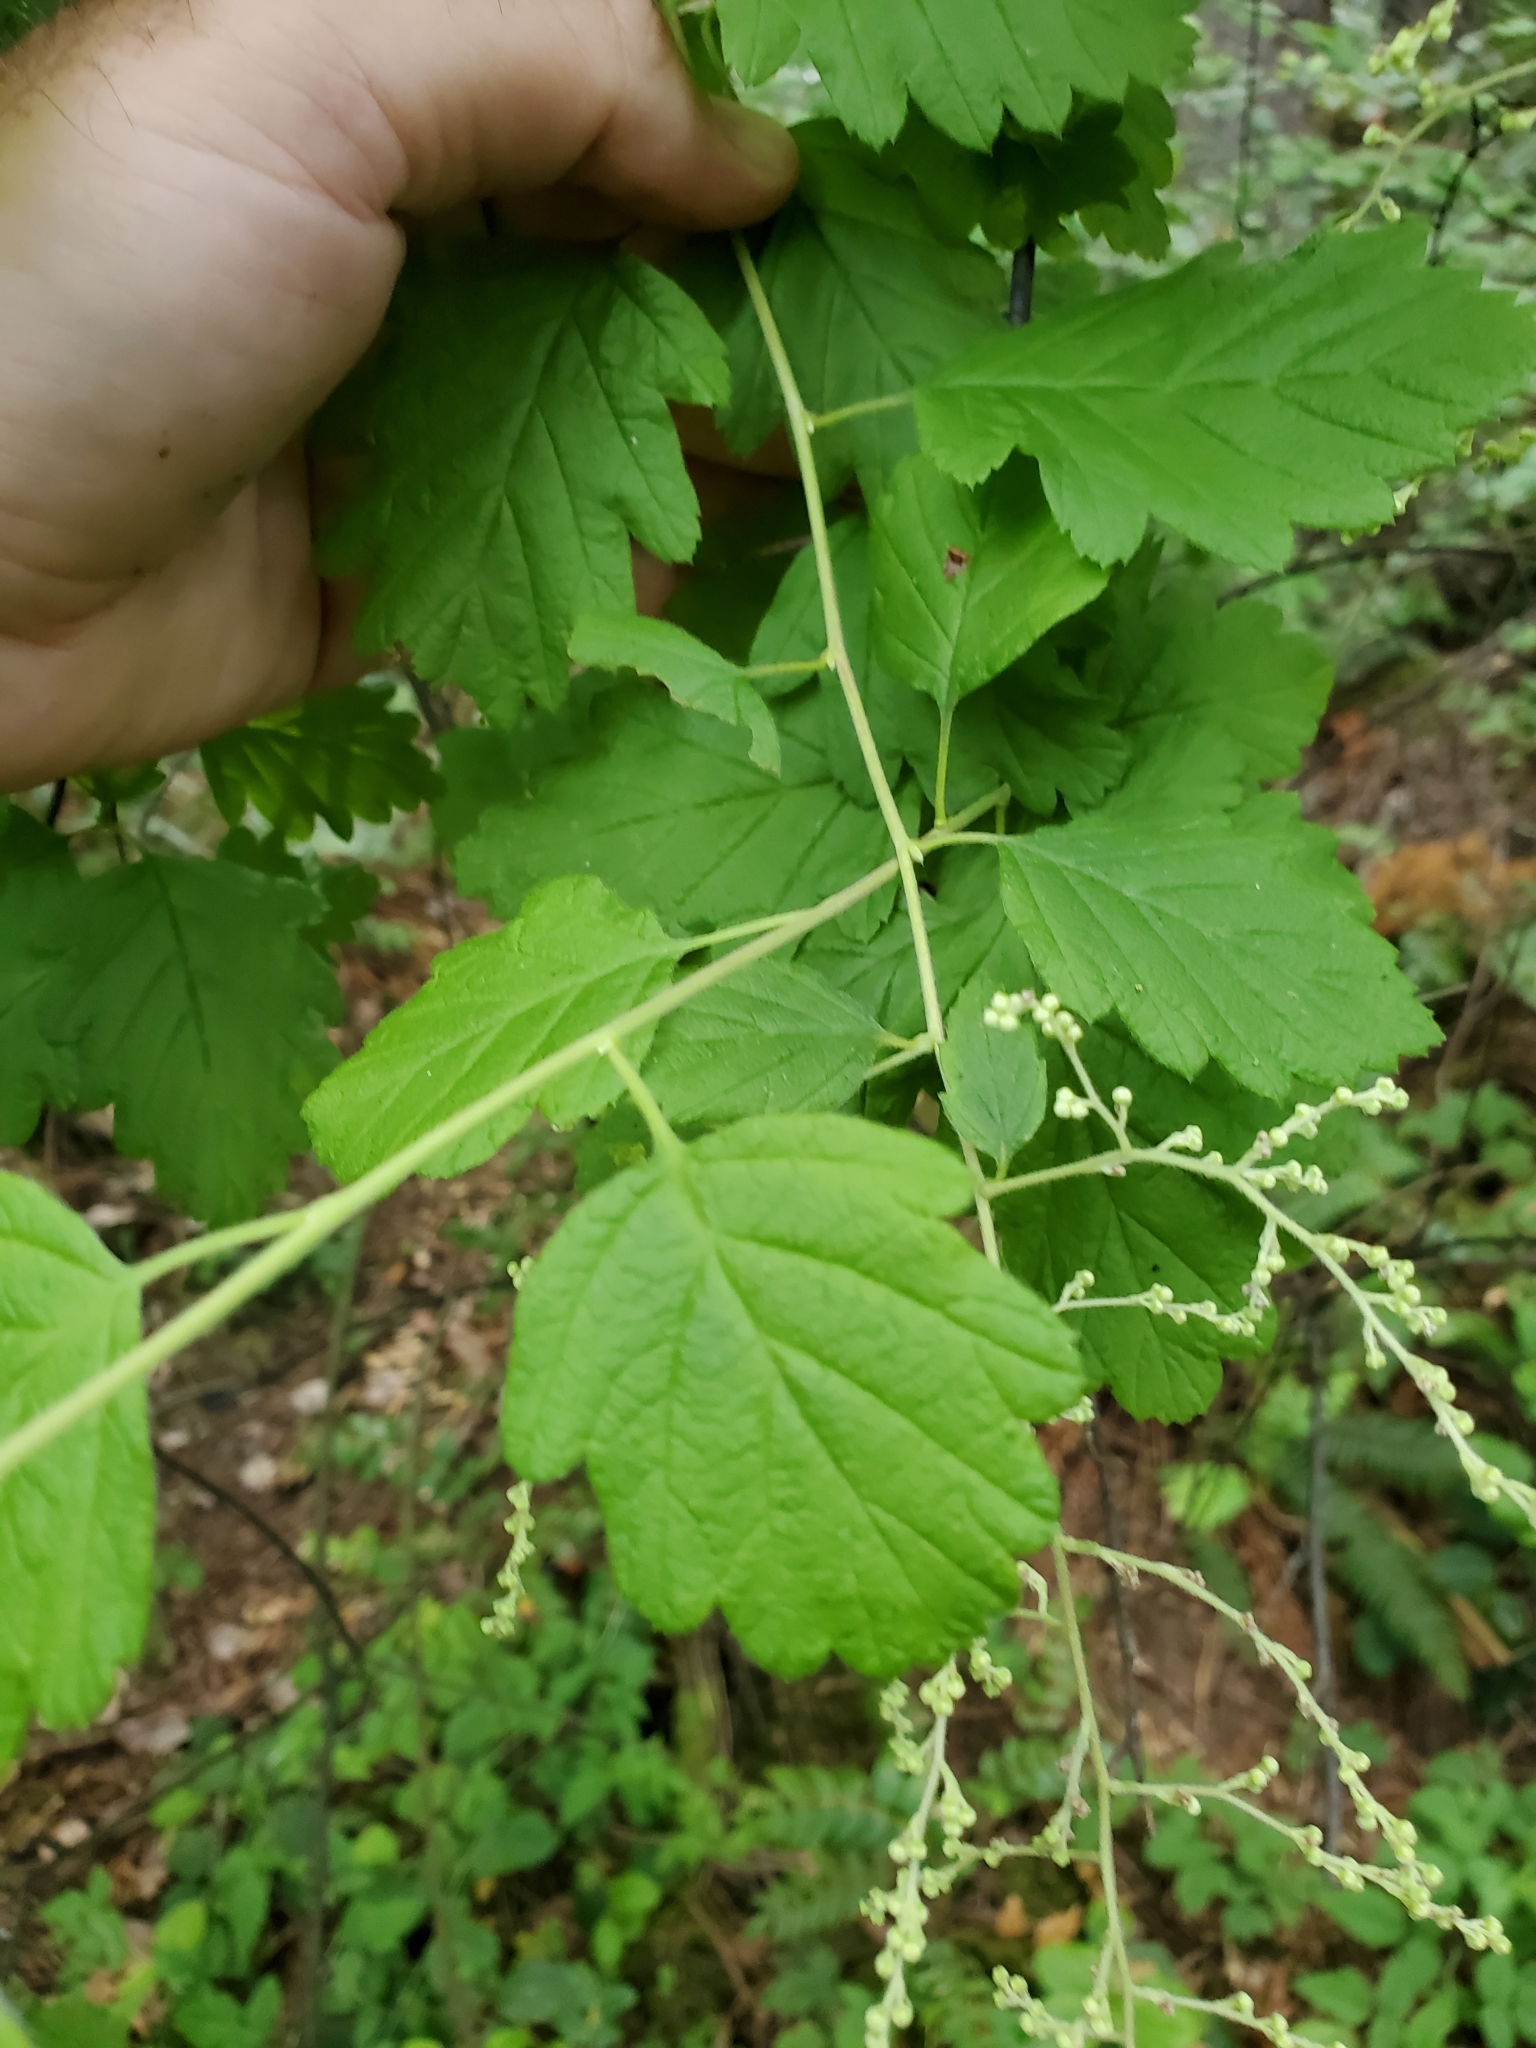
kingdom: Plantae
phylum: Tracheophyta
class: Magnoliopsida
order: Rosales
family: Rosaceae
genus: Holodiscus
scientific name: Holodiscus discolor
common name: Oceanspray
